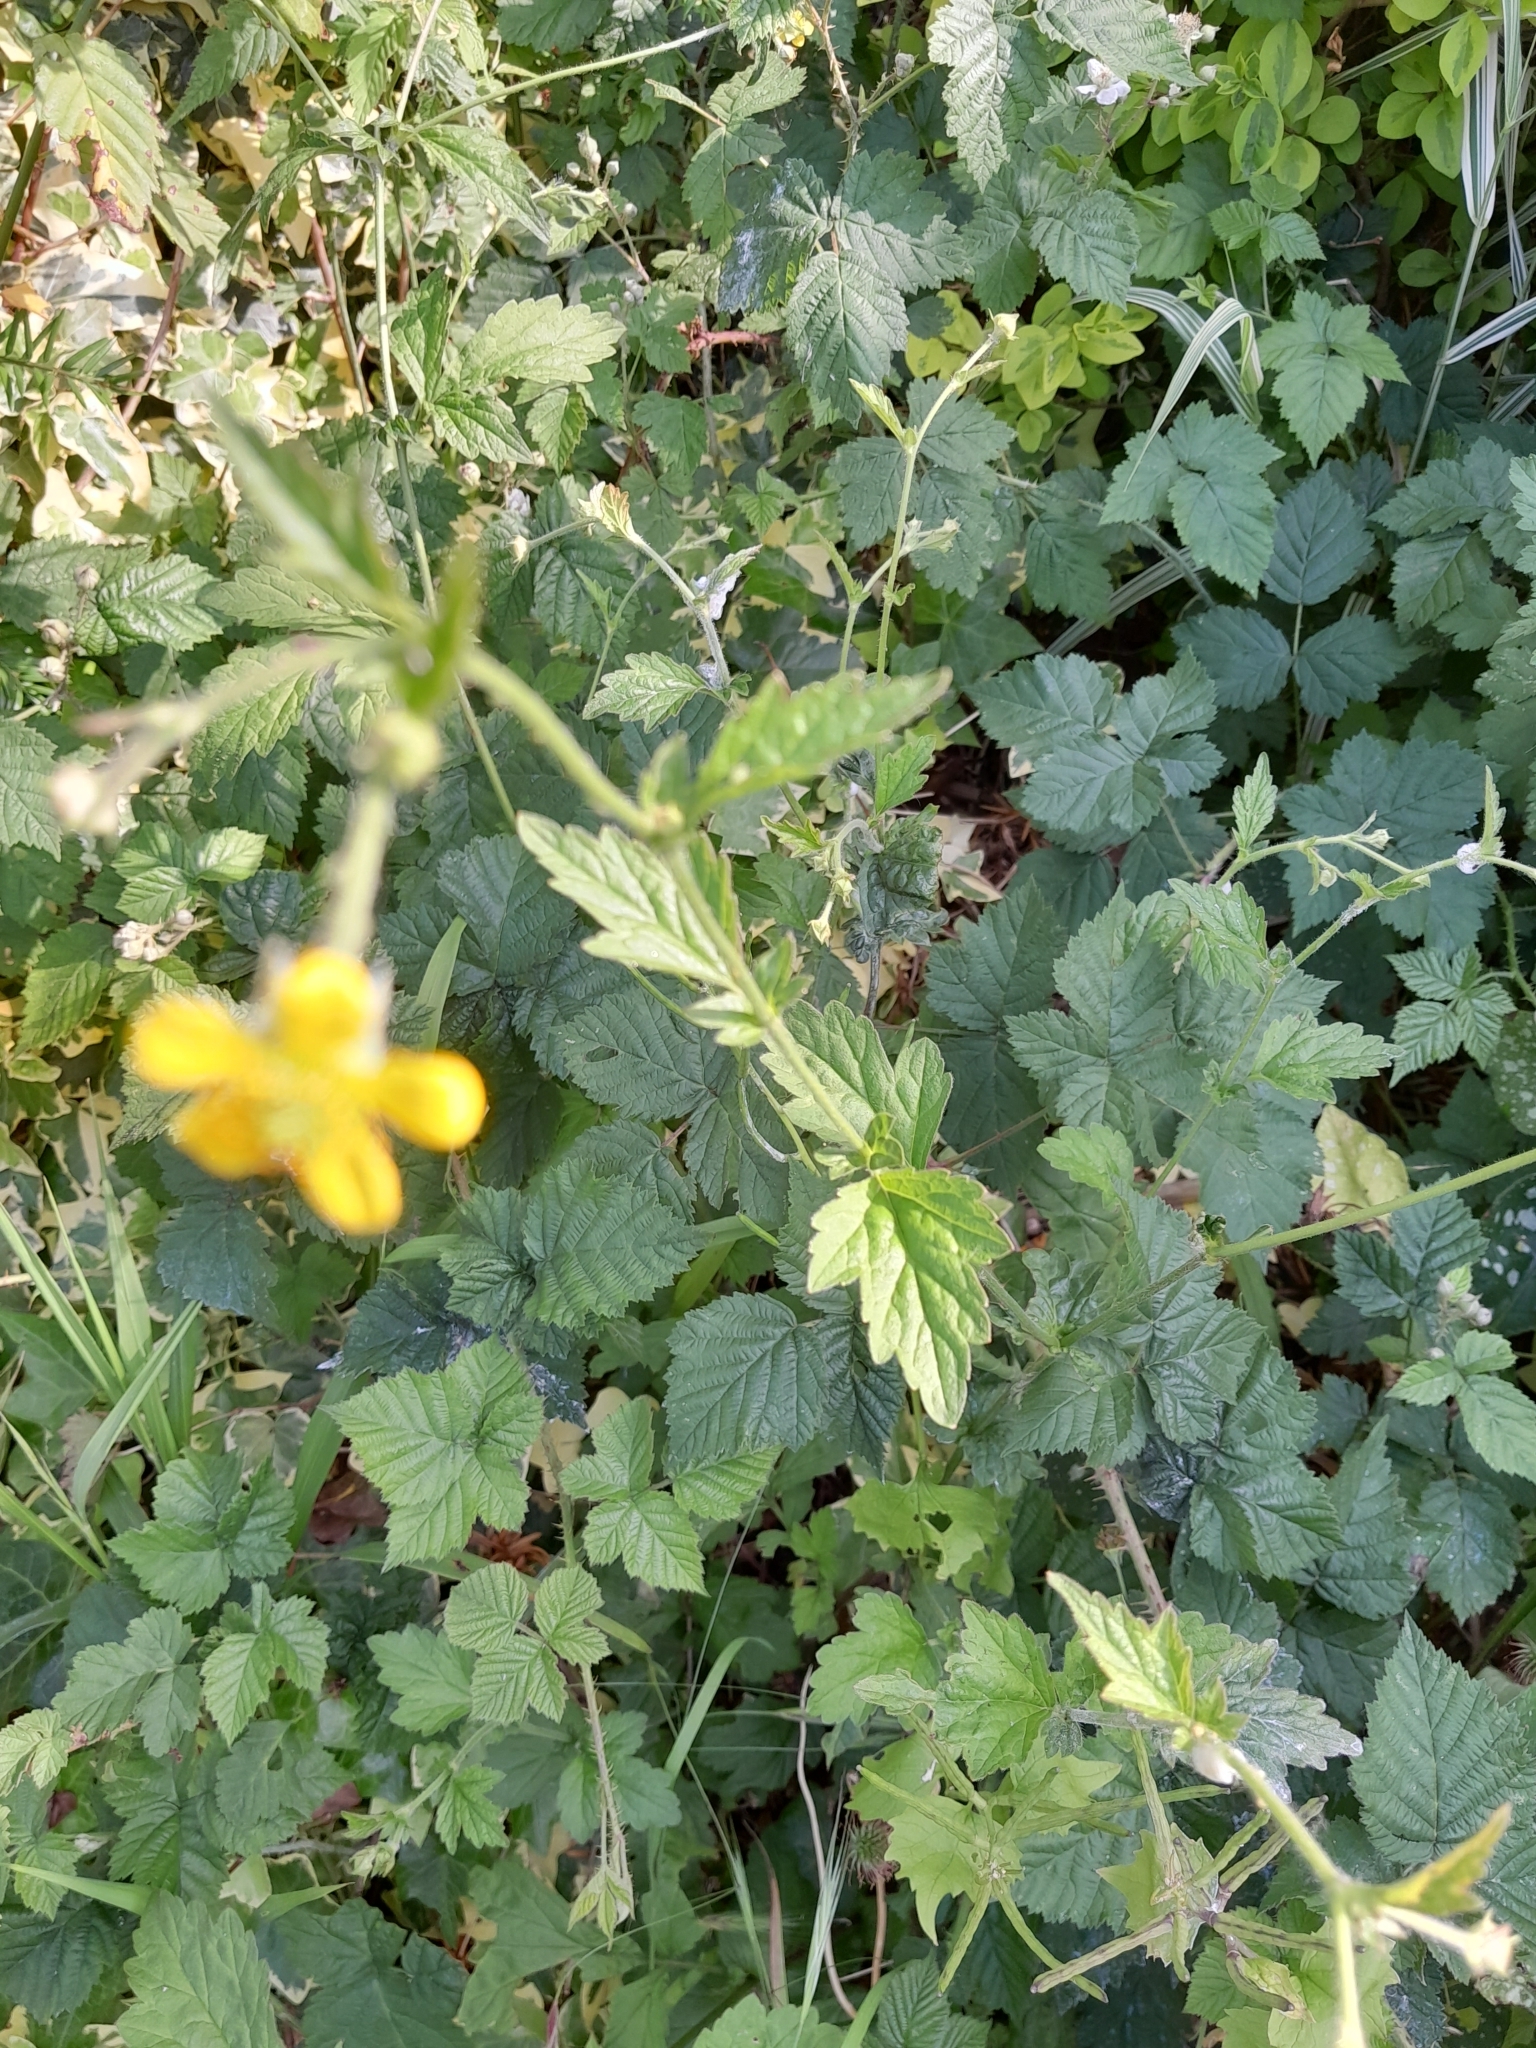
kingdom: Plantae
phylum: Tracheophyta
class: Magnoliopsida
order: Rosales
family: Rosaceae
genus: Geum
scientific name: Geum urbanum
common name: Wood avens
